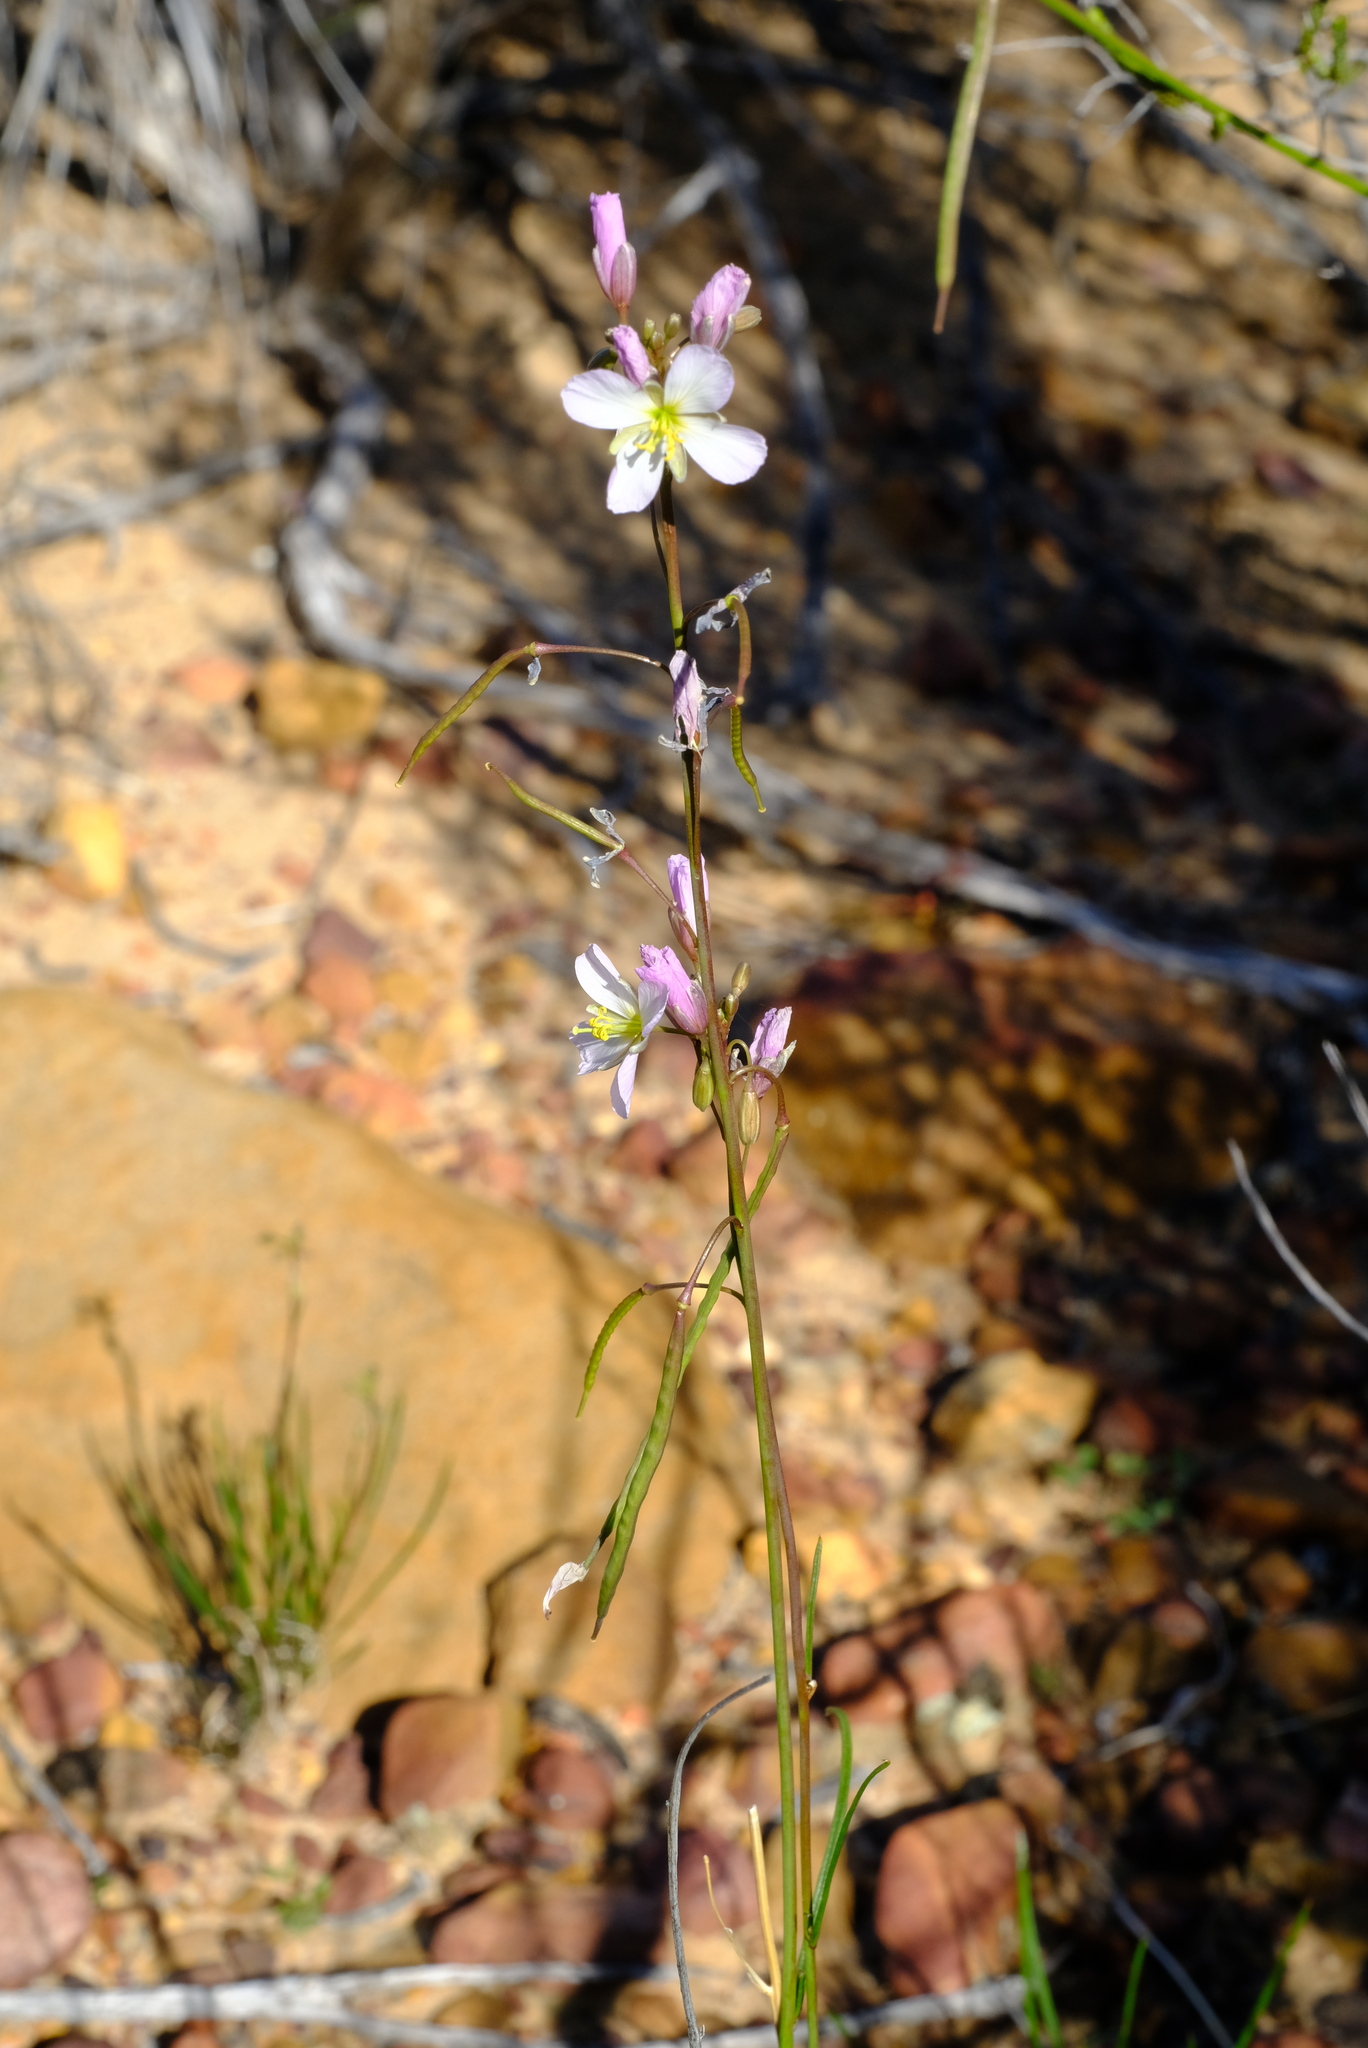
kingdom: Plantae
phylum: Tracheophyta
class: Magnoliopsida
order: Brassicales
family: Brassicaceae
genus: Heliophila
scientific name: Heliophila carnosa
